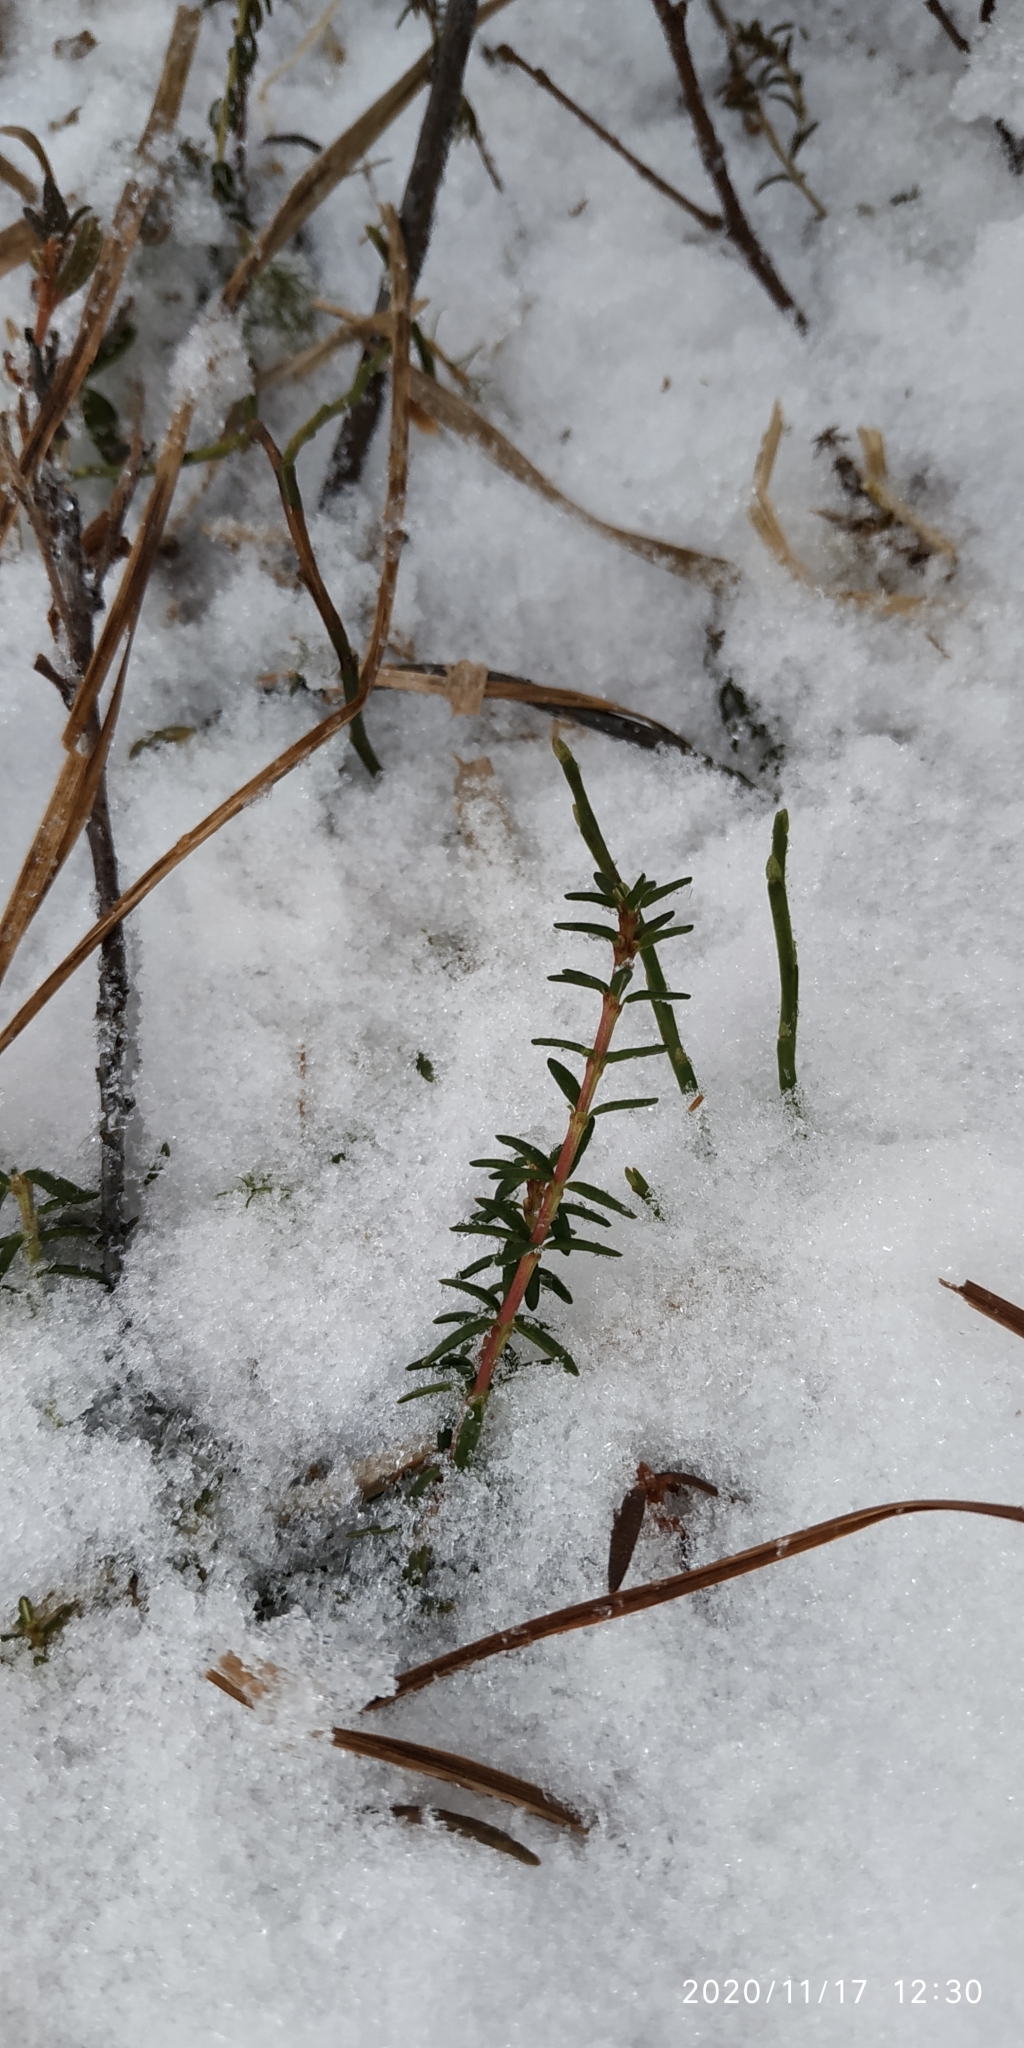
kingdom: Plantae
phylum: Tracheophyta
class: Magnoliopsida
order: Ericales
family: Ericaceae
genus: Empetrum
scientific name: Empetrum nigrum
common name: Black crowberry
